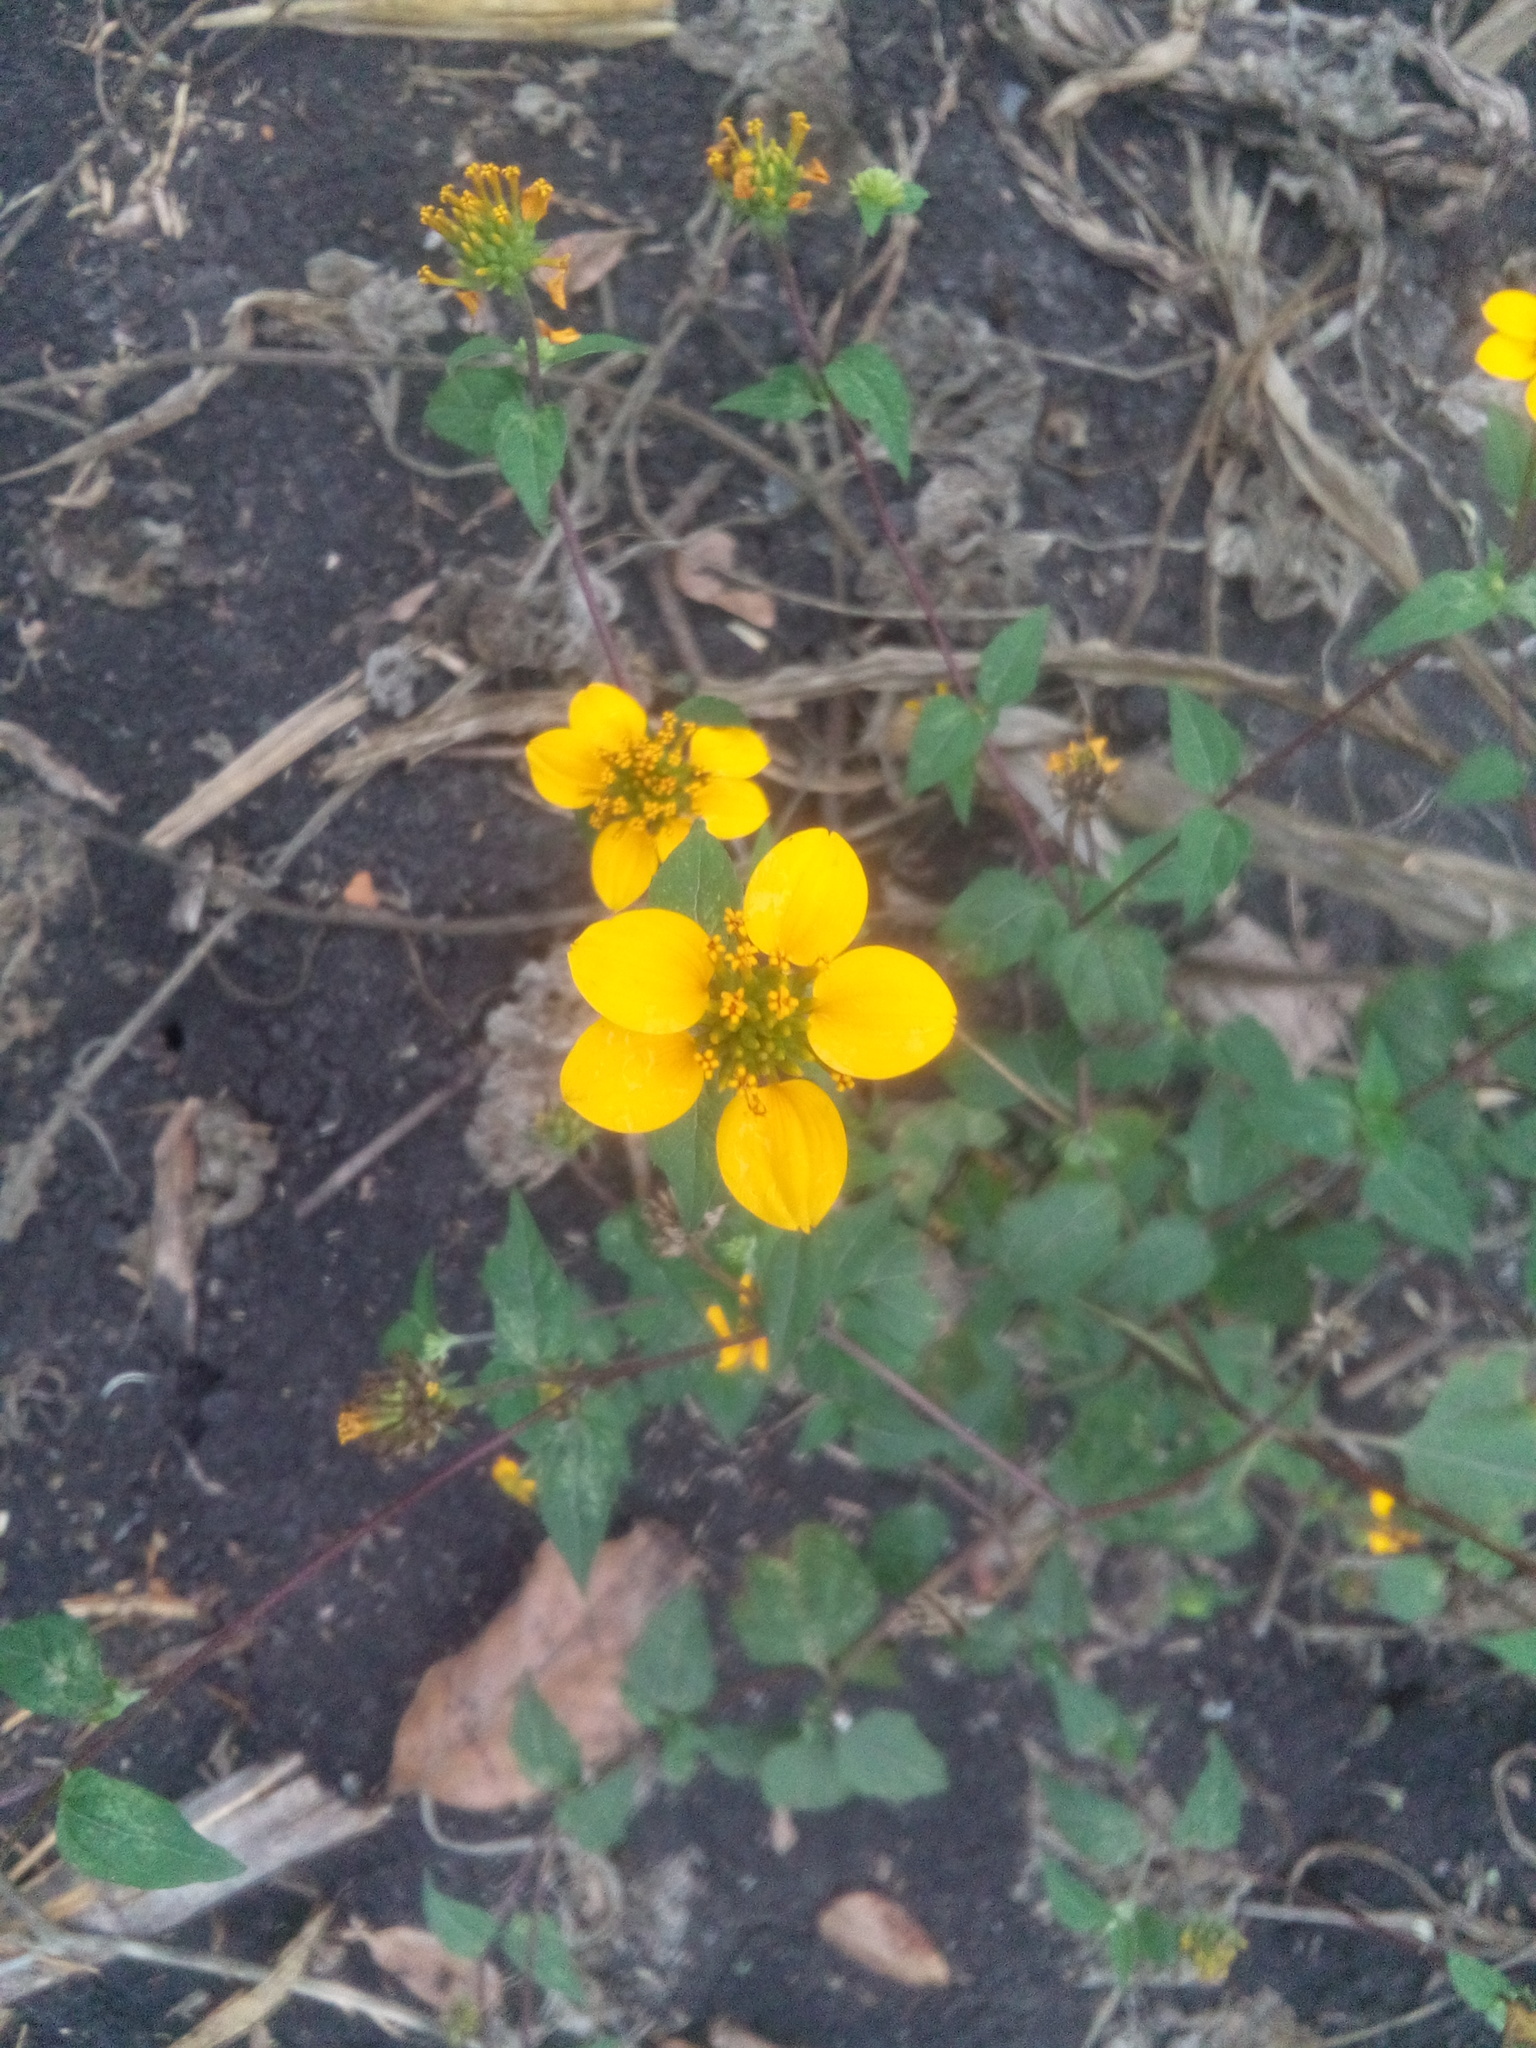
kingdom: Plantae
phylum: Tracheophyta
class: Magnoliopsida
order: Asterales
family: Asteraceae
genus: Sclerocarpus
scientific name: Sclerocarpus uniserialis
